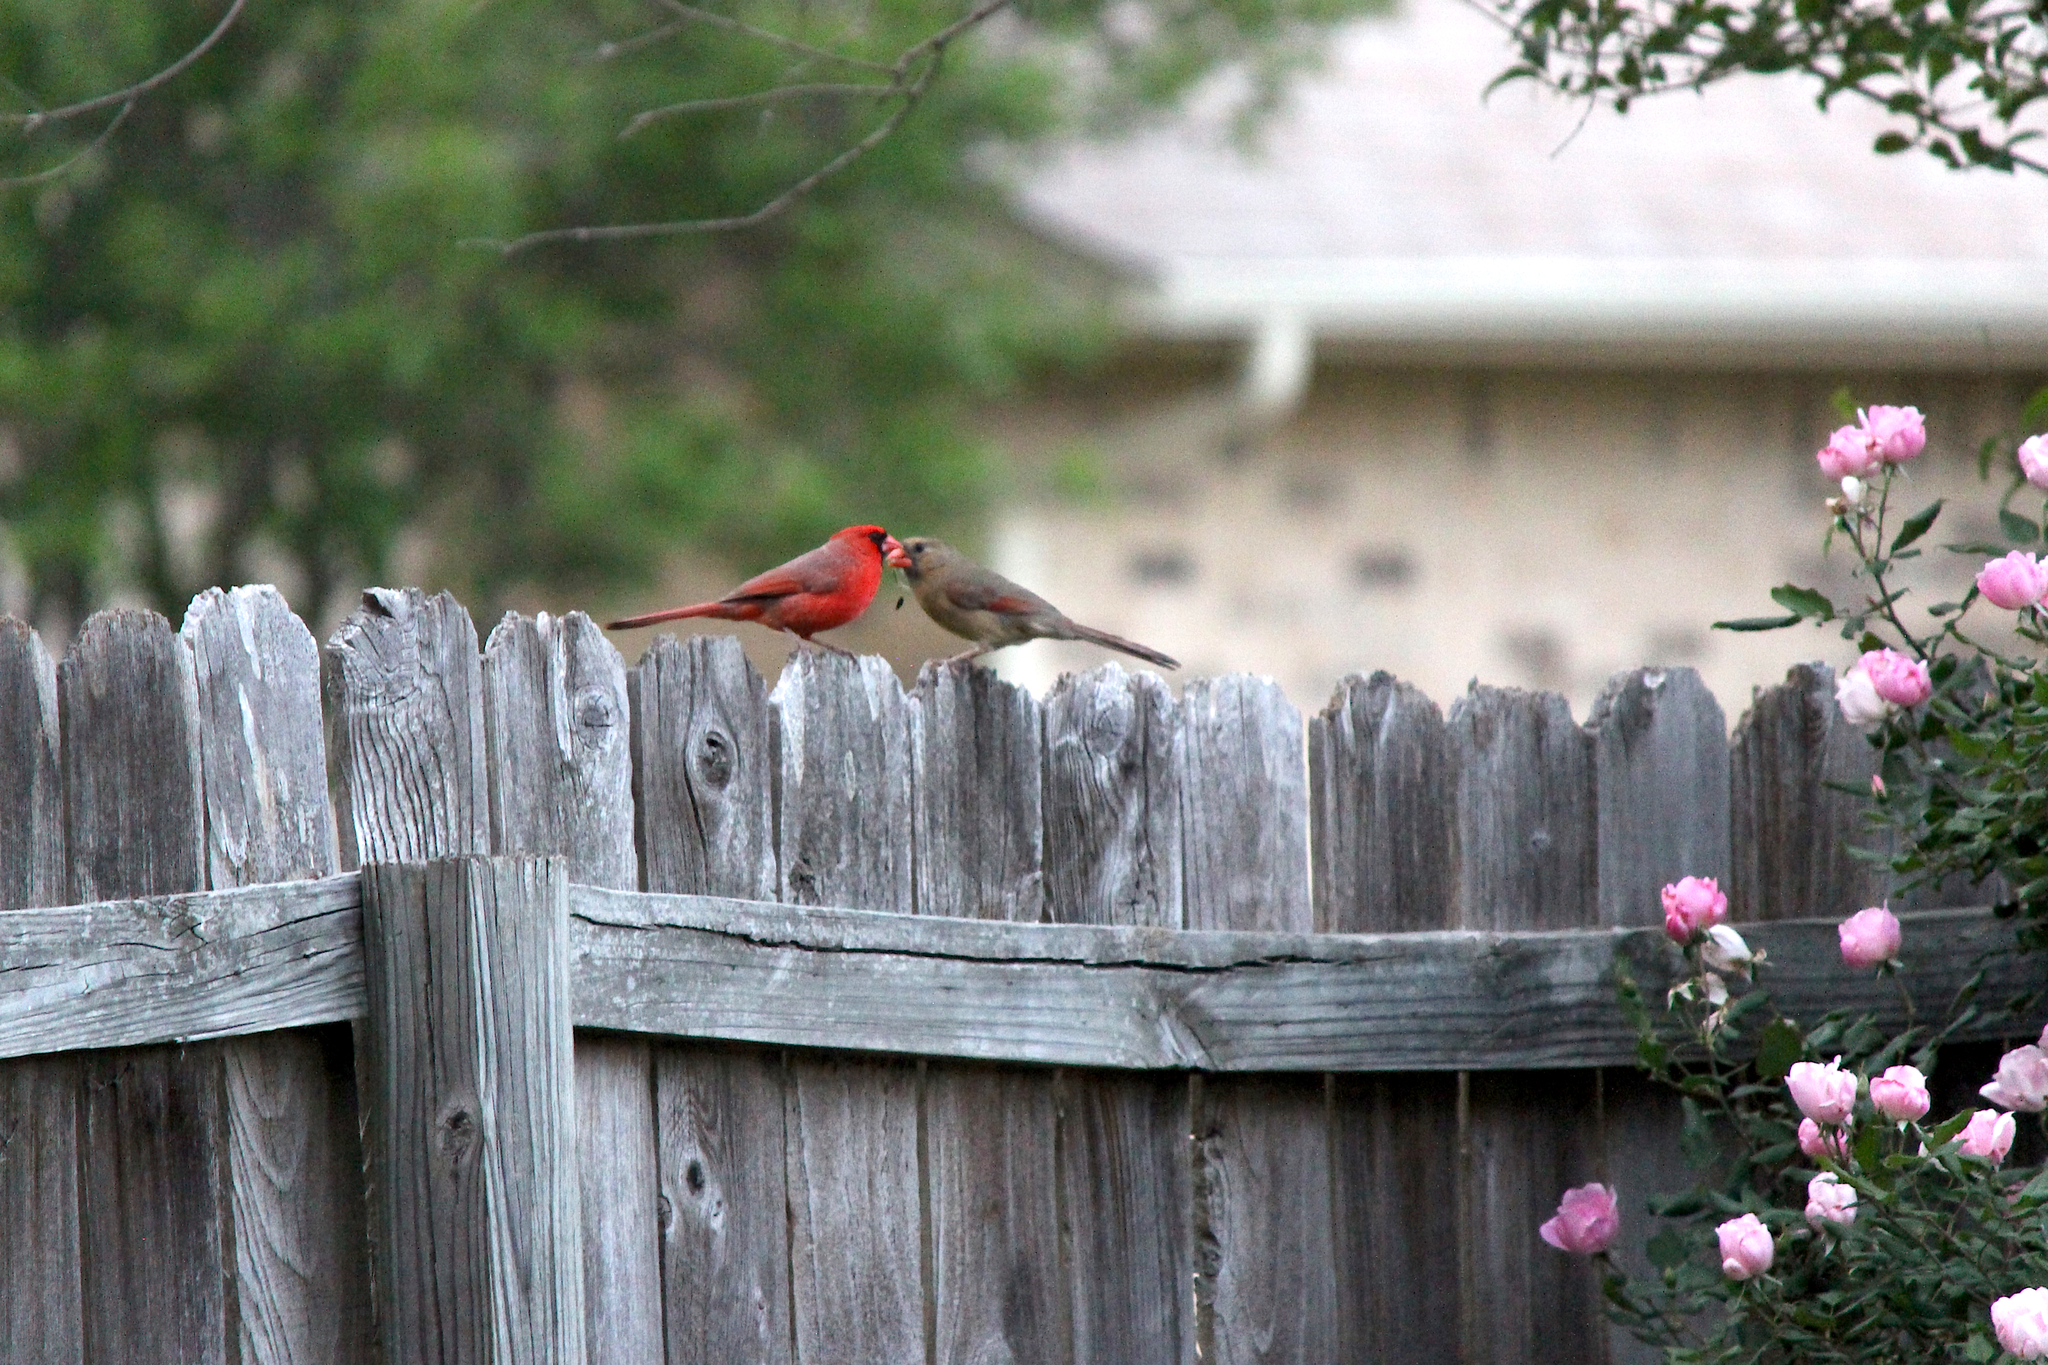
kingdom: Animalia
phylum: Chordata
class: Aves
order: Passeriformes
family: Cardinalidae
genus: Cardinalis
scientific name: Cardinalis cardinalis
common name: Northern cardinal
